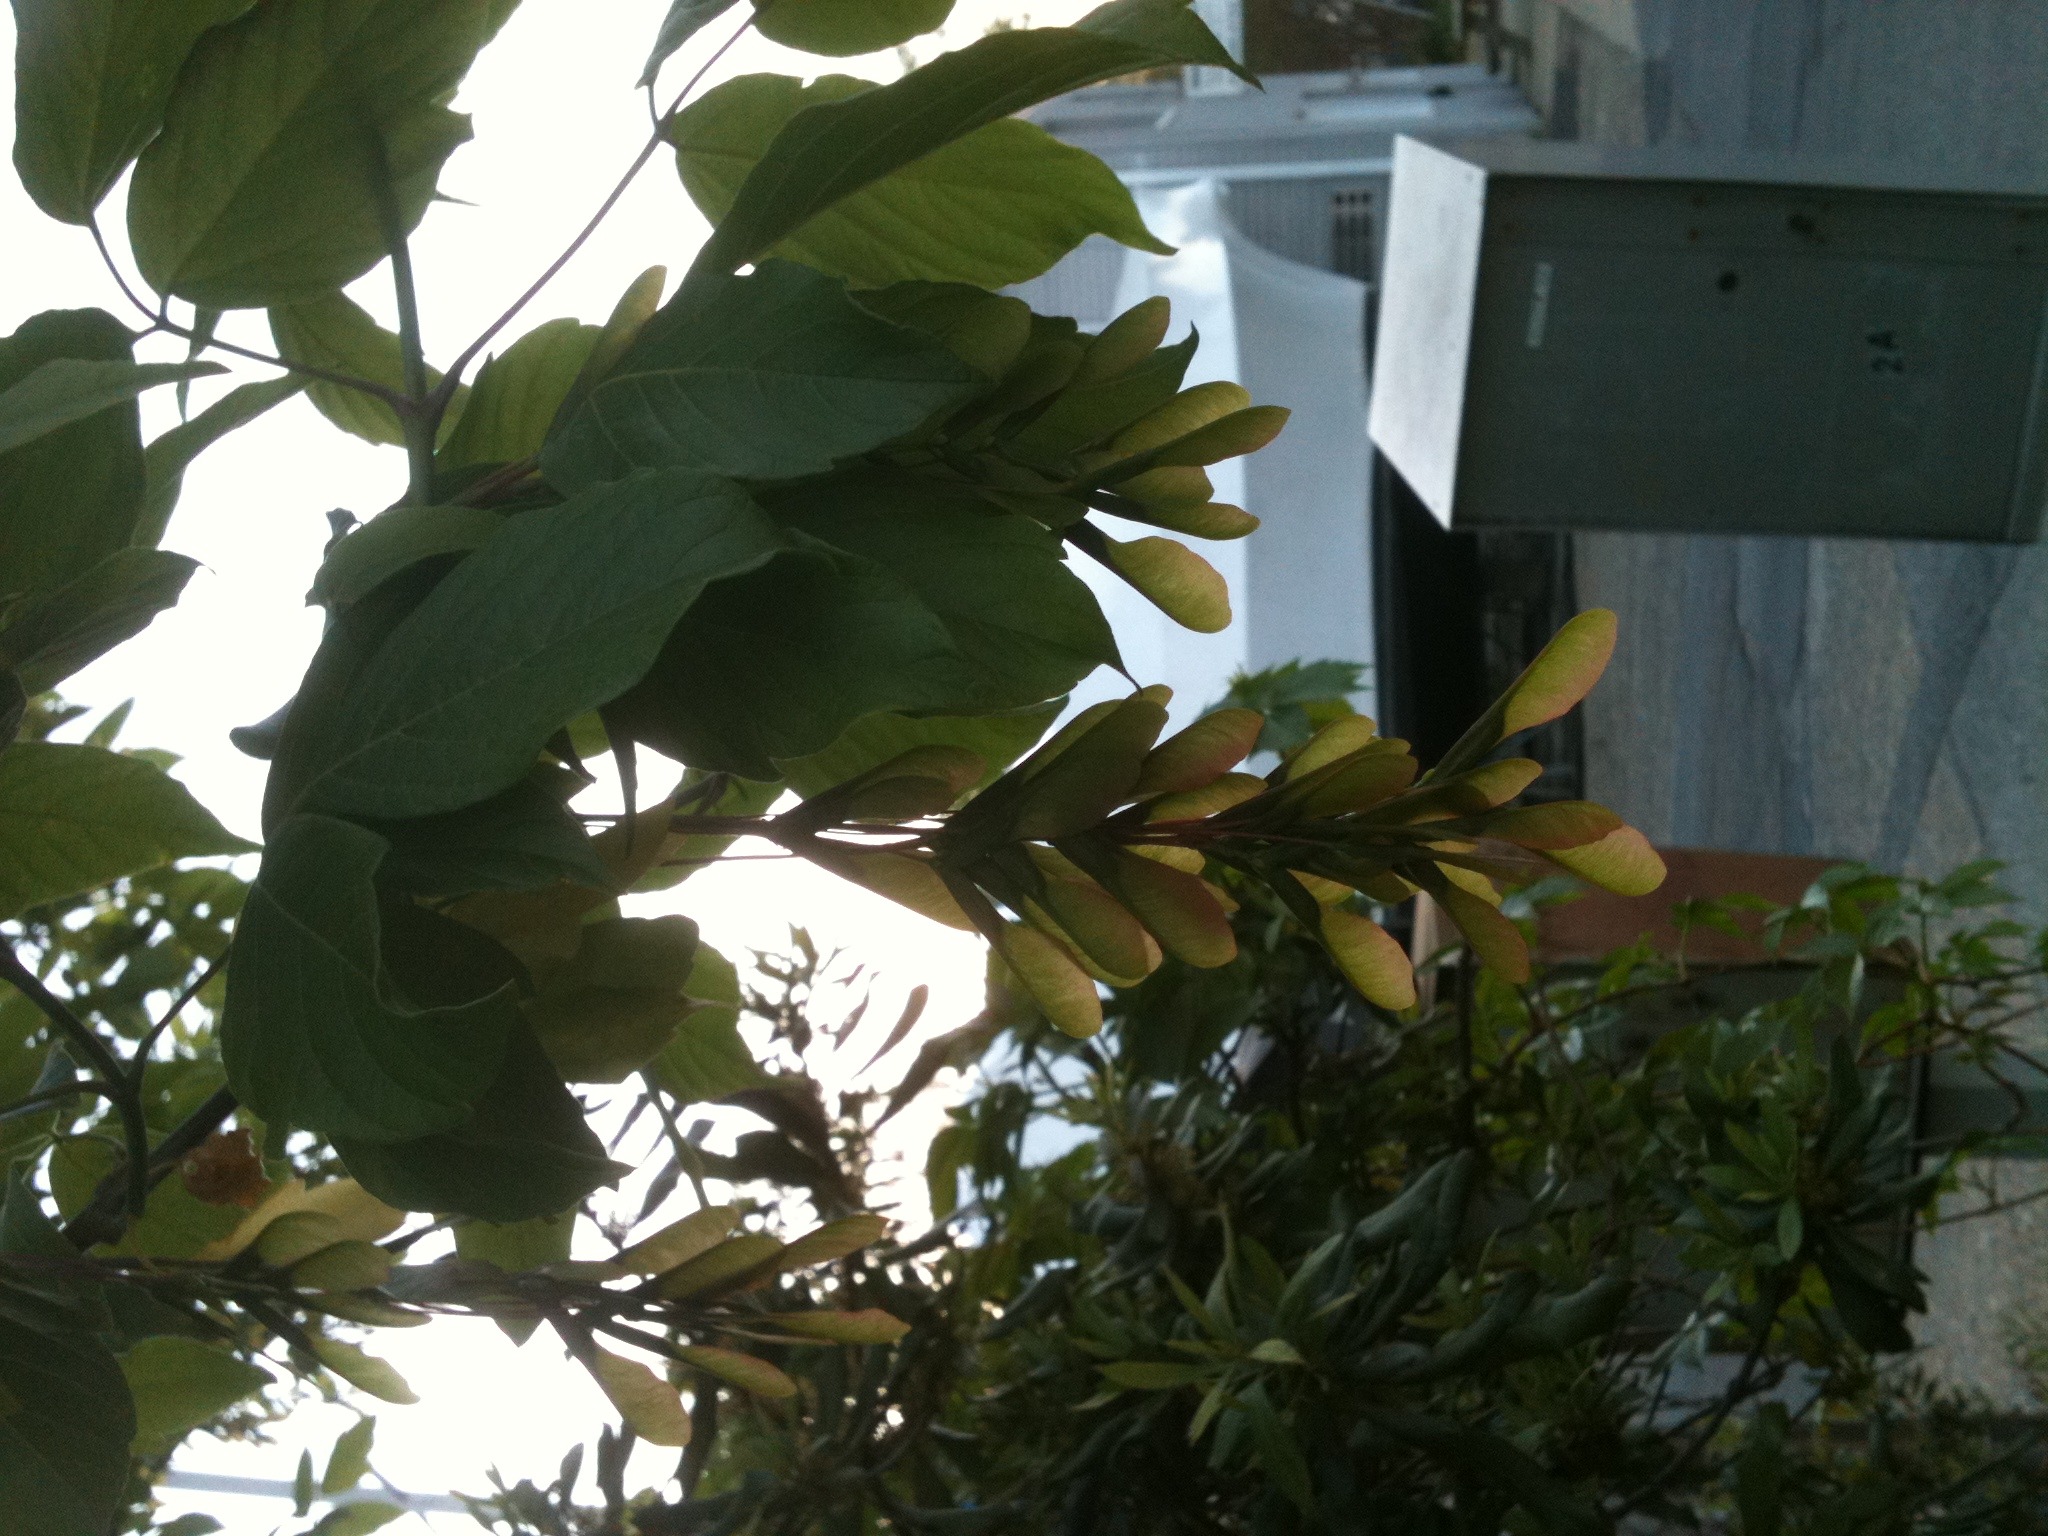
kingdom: Plantae
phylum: Tracheophyta
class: Magnoliopsida
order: Sapindales
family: Sapindaceae
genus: Acer
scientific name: Acer negundo
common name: Ashleaf maple
